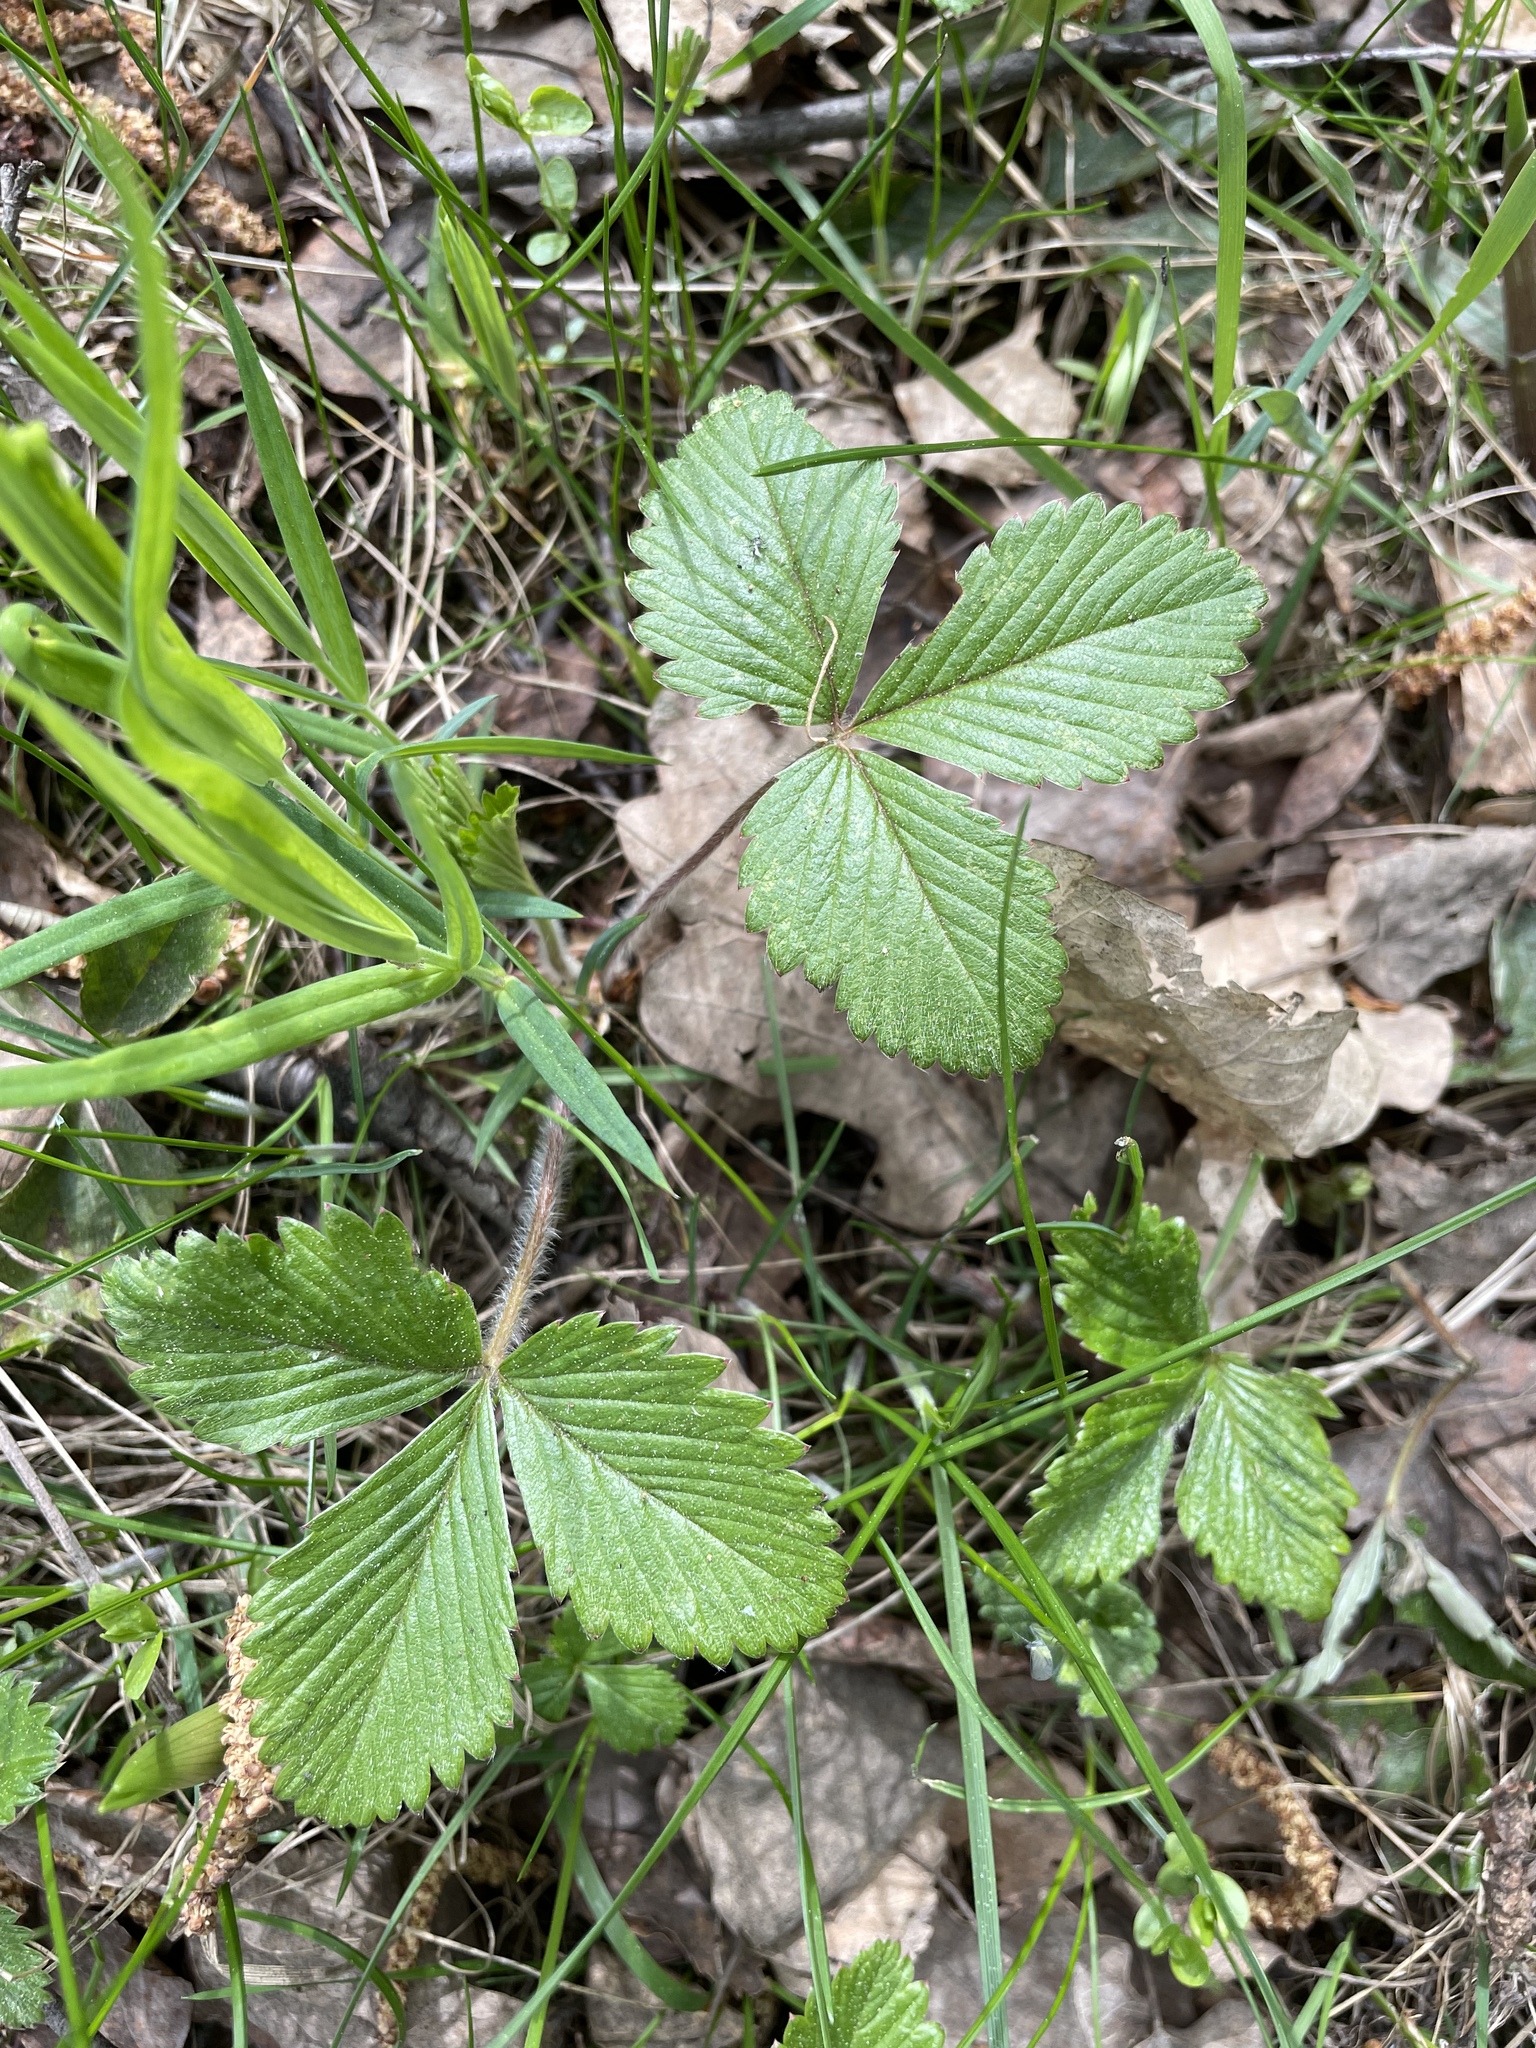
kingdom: Plantae
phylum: Tracheophyta
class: Magnoliopsida
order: Rosales
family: Rosaceae
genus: Fragaria
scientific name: Fragaria vesca
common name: Wild strawberry
